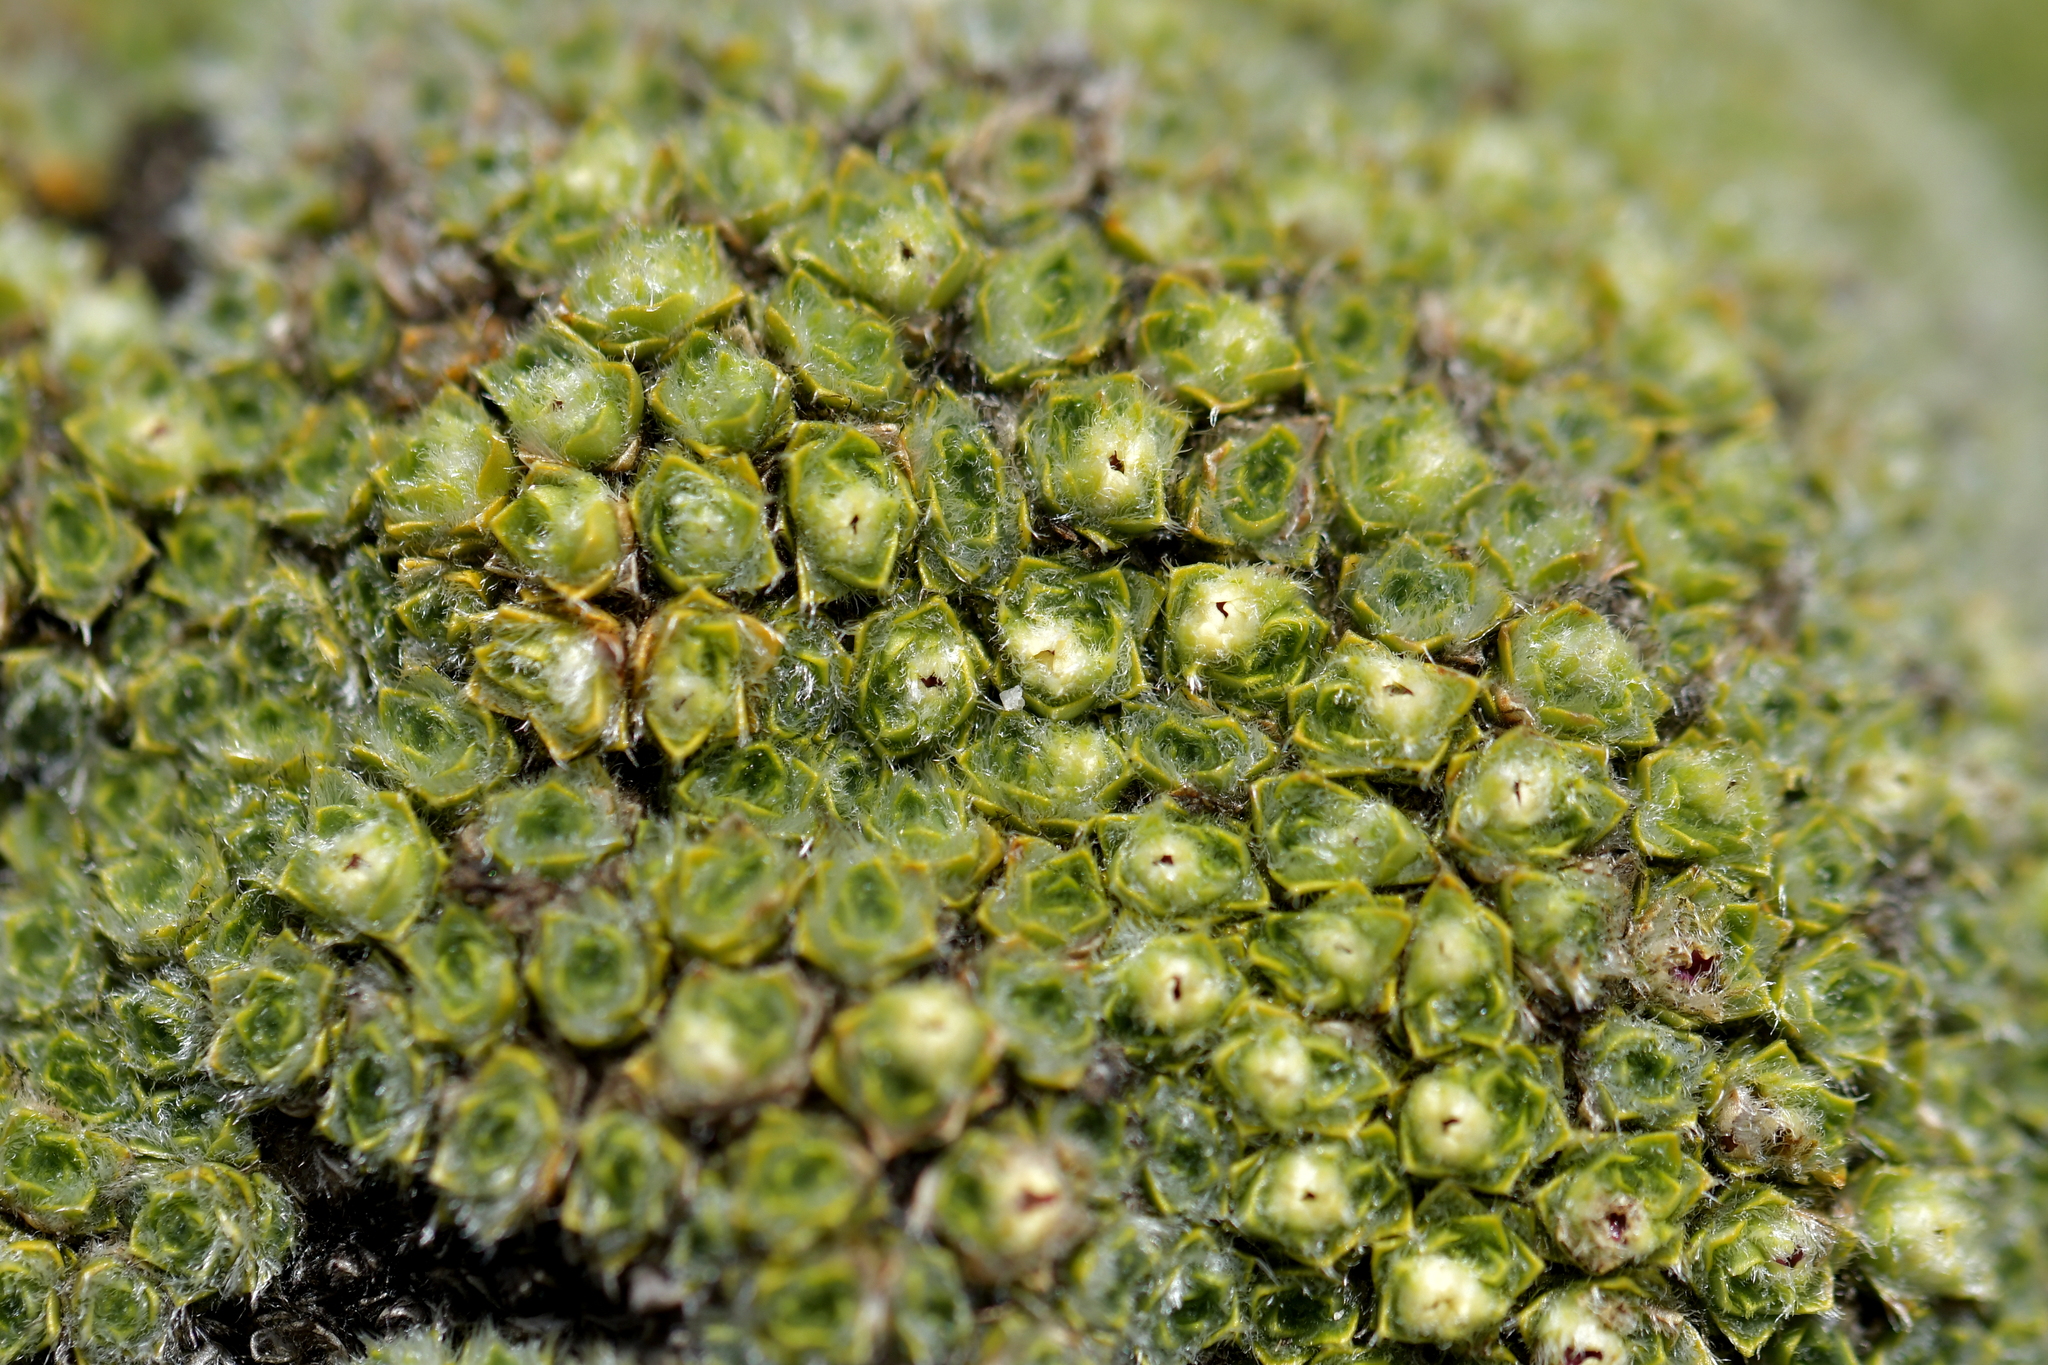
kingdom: Plantae
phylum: Tracheophyta
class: Magnoliopsida
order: Lamiales
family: Plantaginaceae
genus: Veronica
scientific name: Veronica thomsonii
